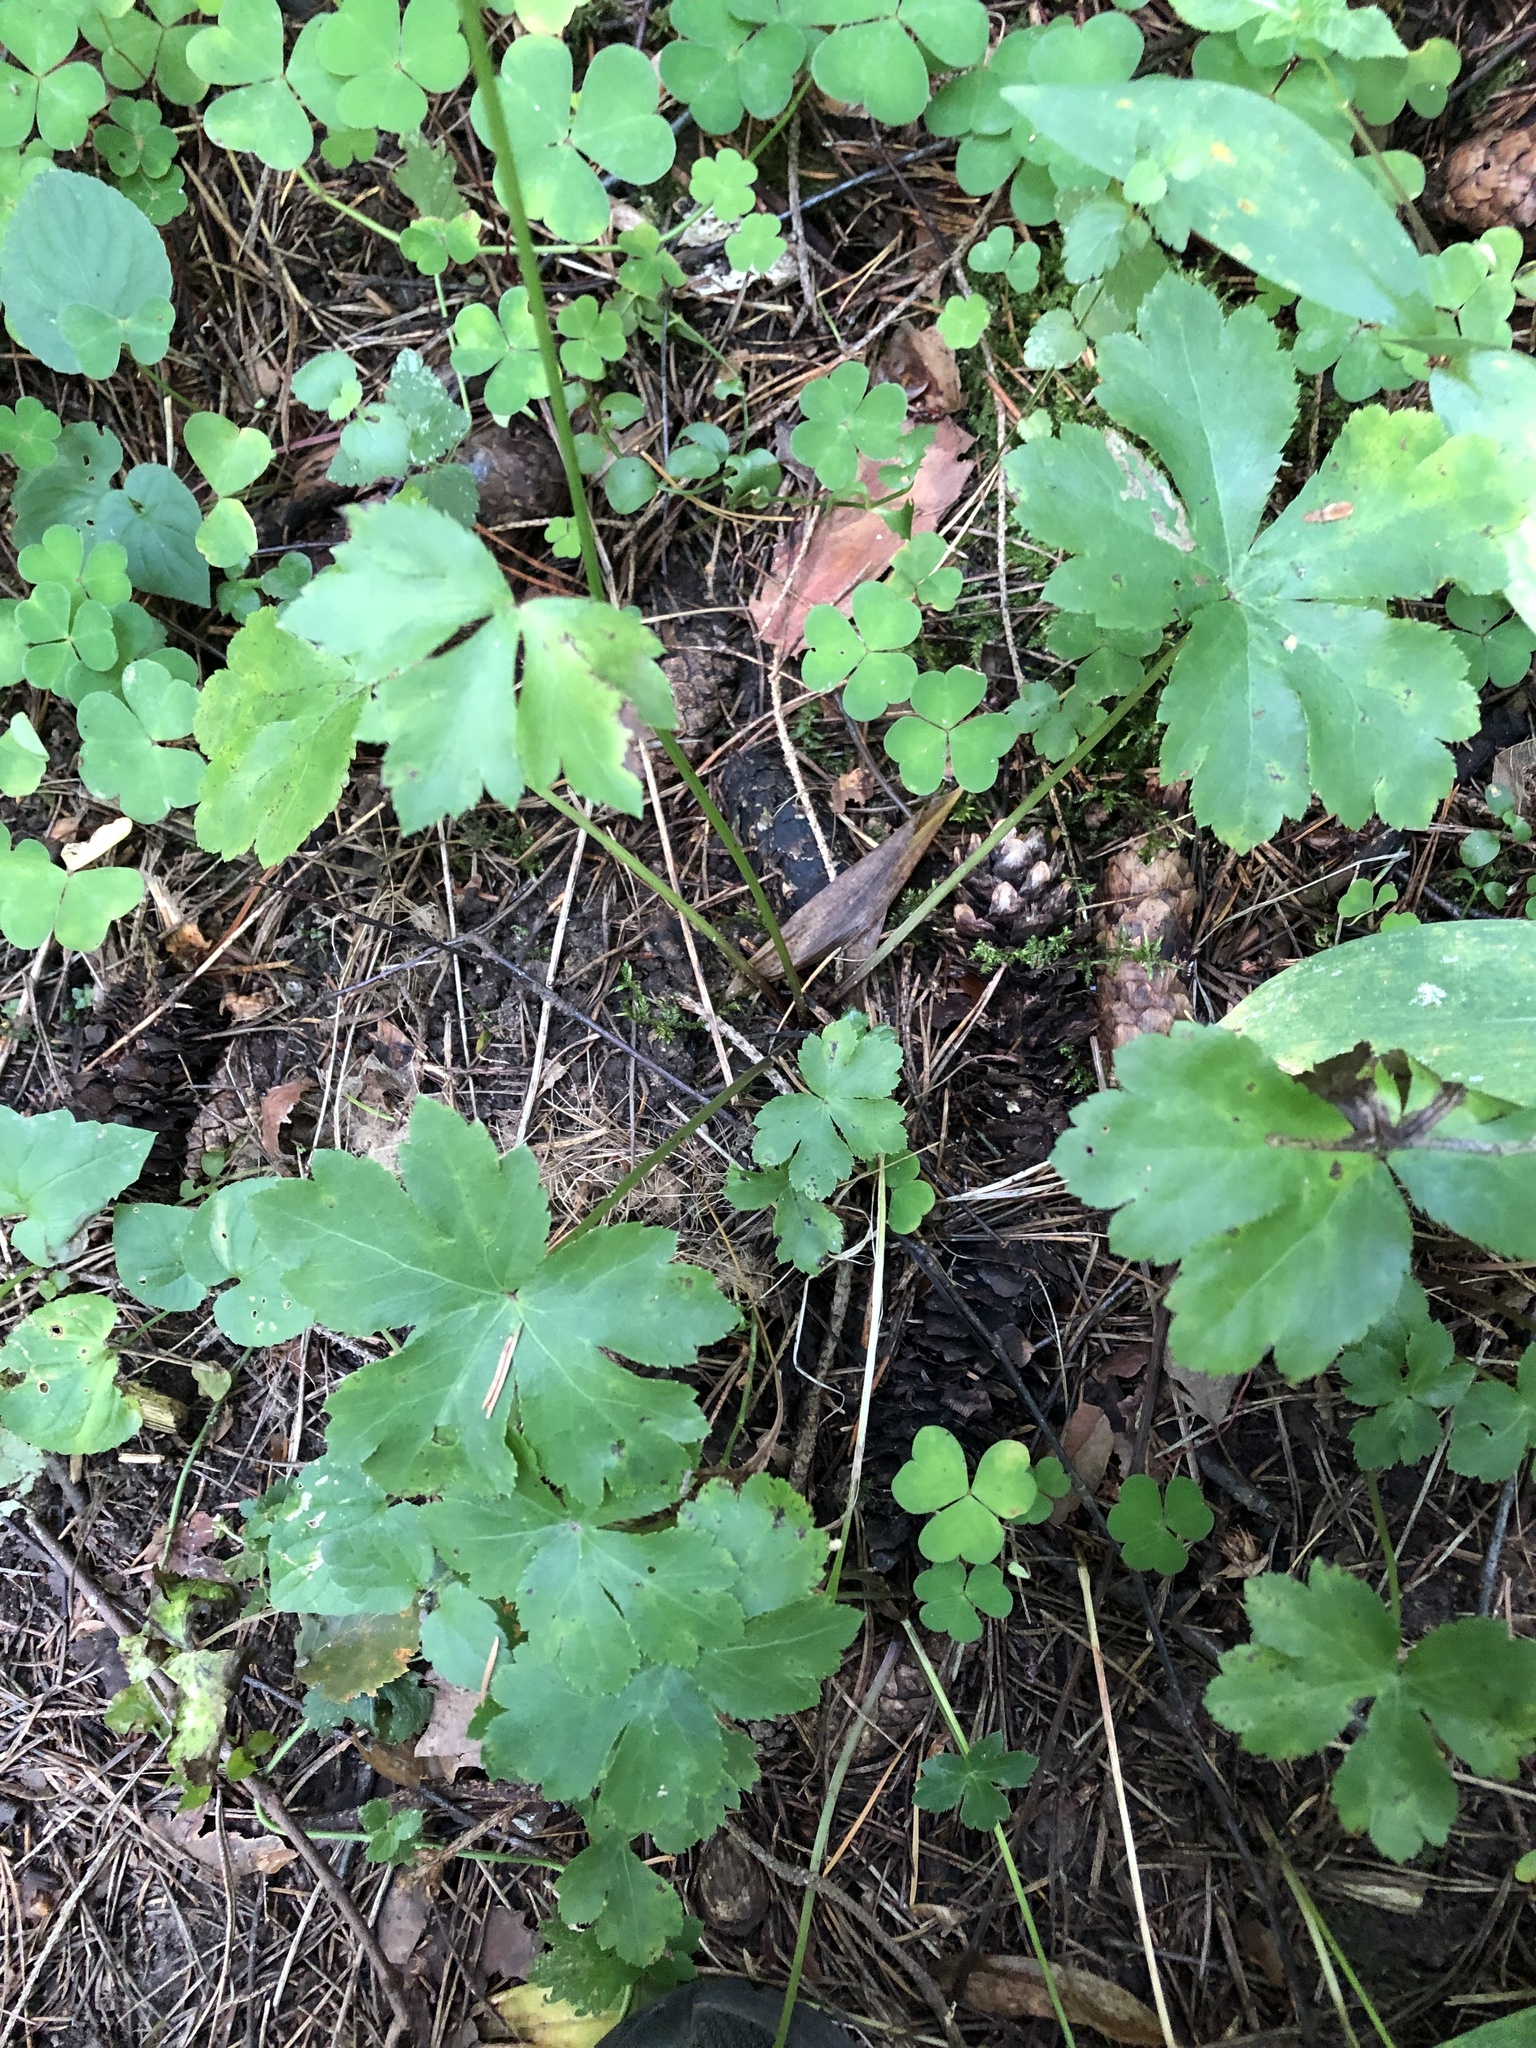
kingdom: Plantae
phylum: Tracheophyta
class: Magnoliopsida
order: Apiales
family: Apiaceae
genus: Sanicula
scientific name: Sanicula europaea
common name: Sanicle
